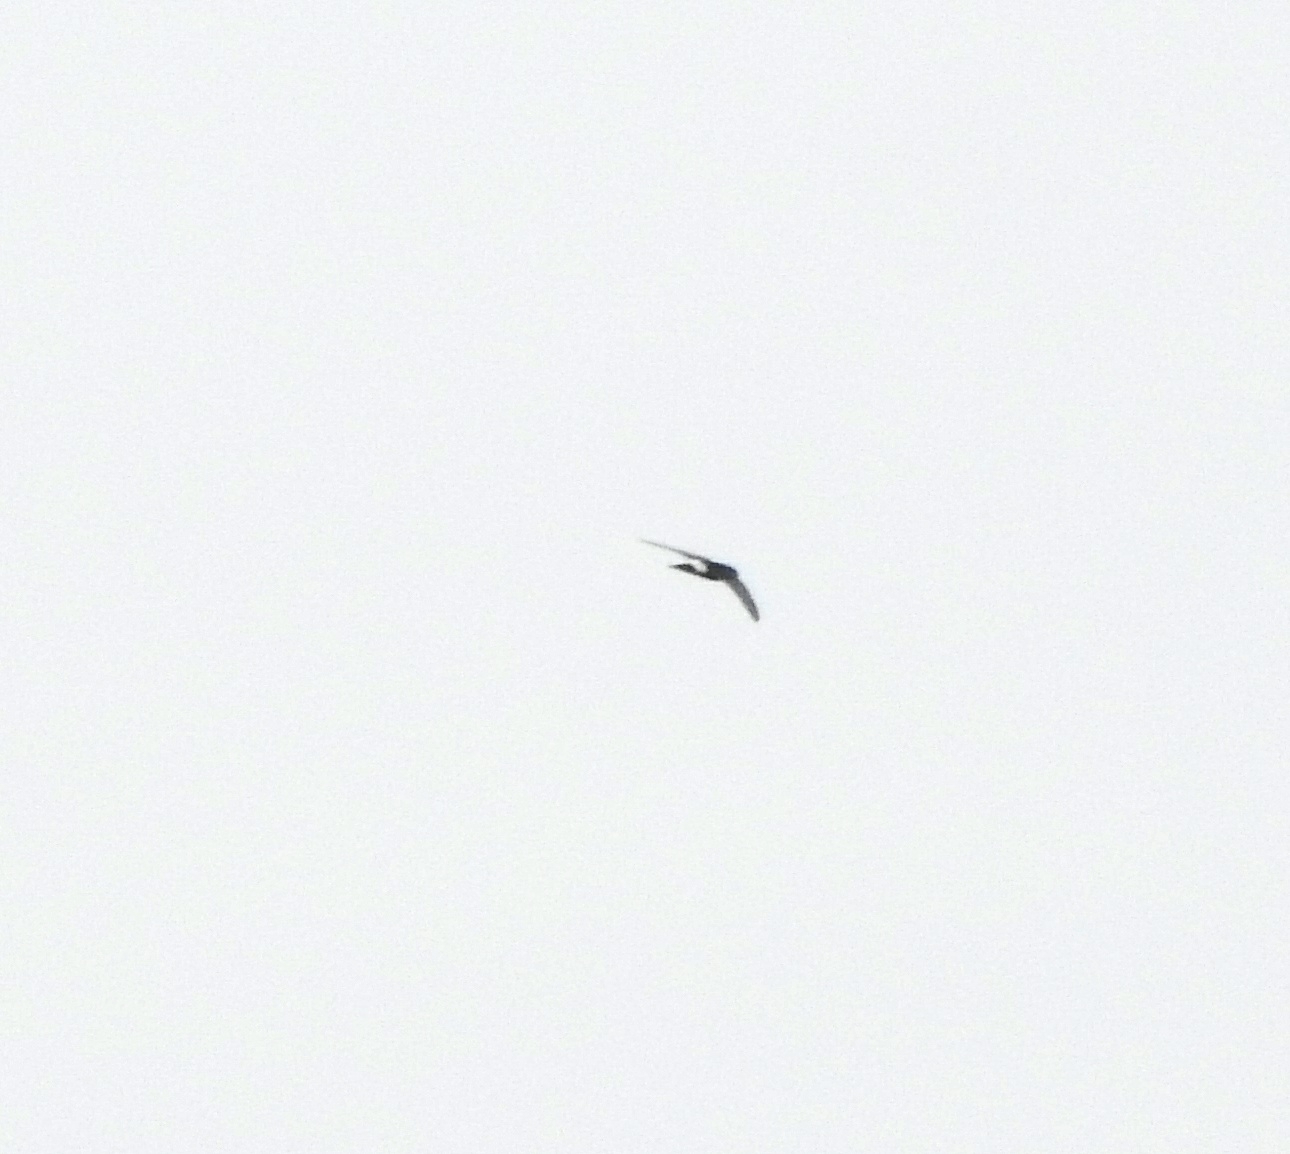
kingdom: Animalia
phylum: Chordata
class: Aves
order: Apodiformes
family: Apodidae
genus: Apus
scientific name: Apus affinis
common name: Little swift
